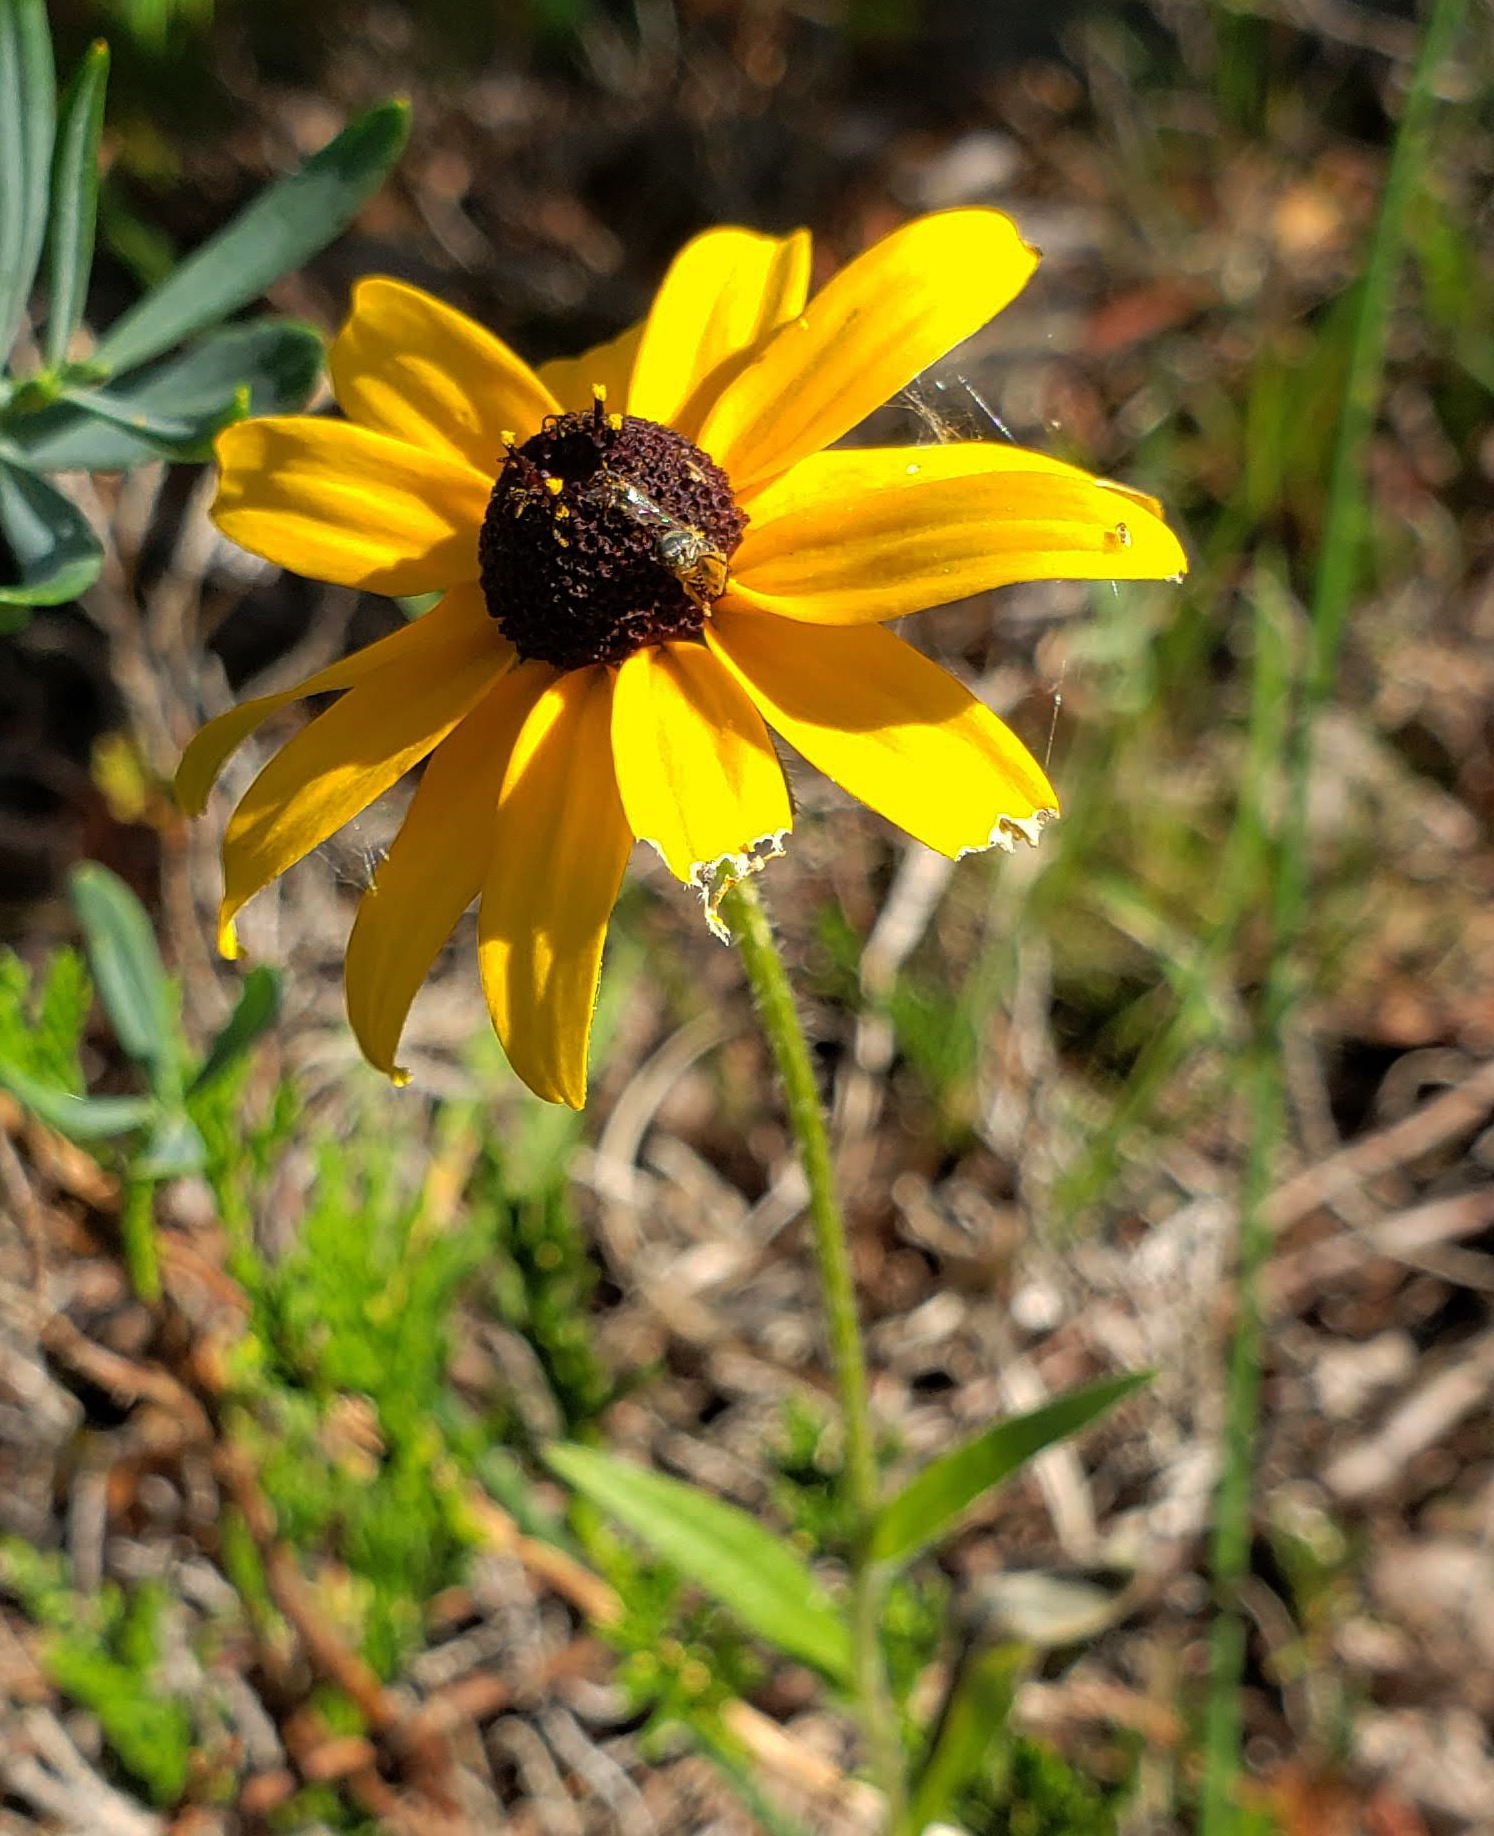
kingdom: Plantae
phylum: Tracheophyta
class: Magnoliopsida
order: Asterales
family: Asteraceae
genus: Rudbeckia
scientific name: Rudbeckia hirta
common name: Black-eyed-susan
